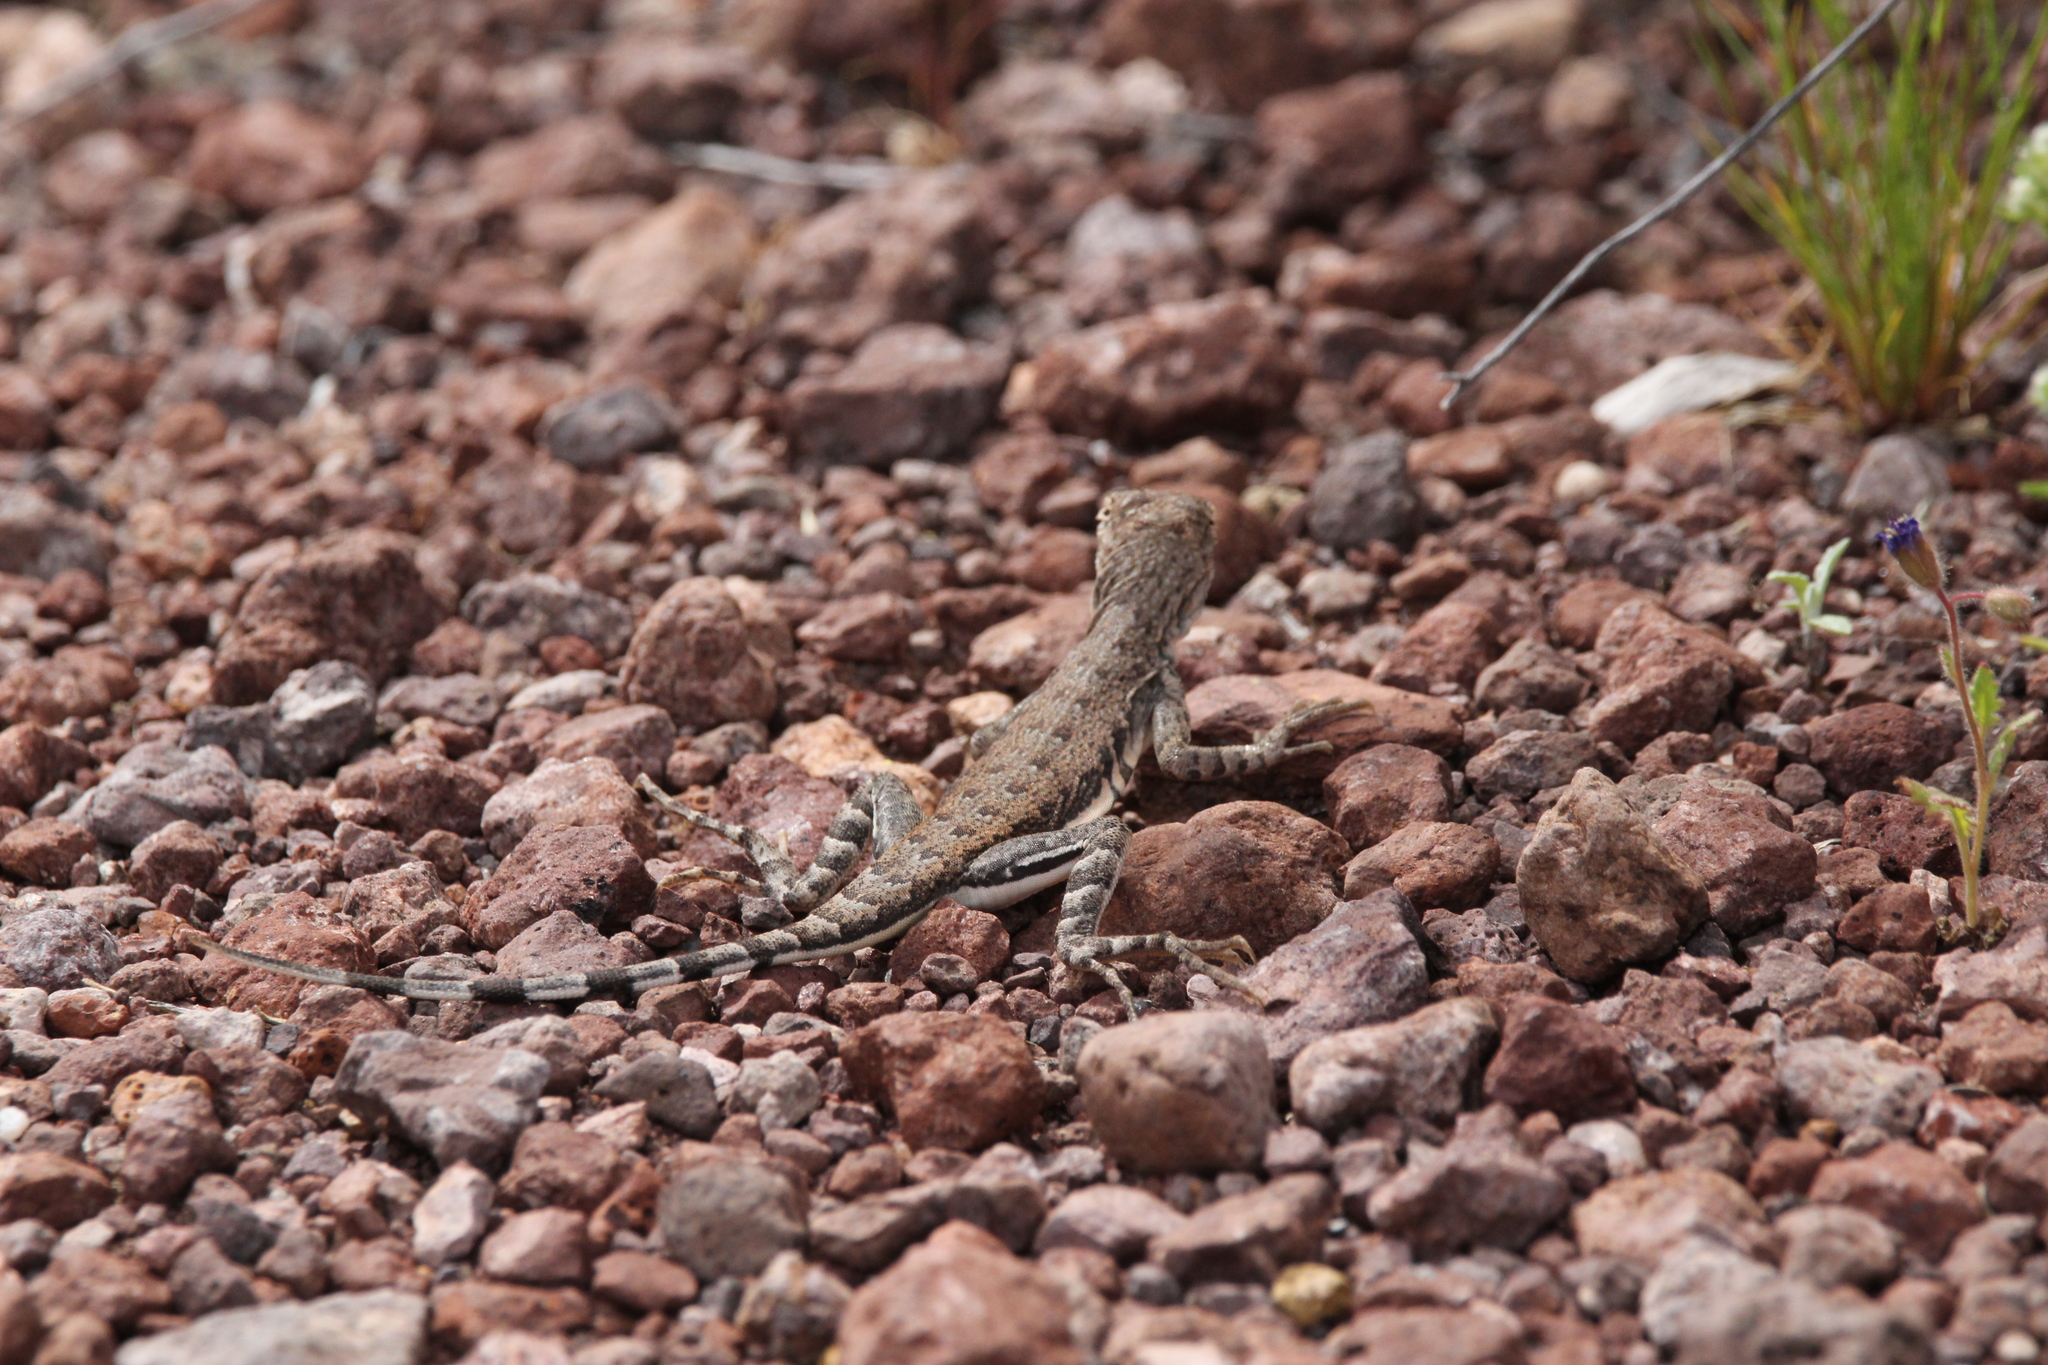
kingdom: Animalia
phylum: Chordata
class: Squamata
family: Phrynosomatidae
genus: Callisaurus
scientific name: Callisaurus draconoides
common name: Zebra-tailed lizard
